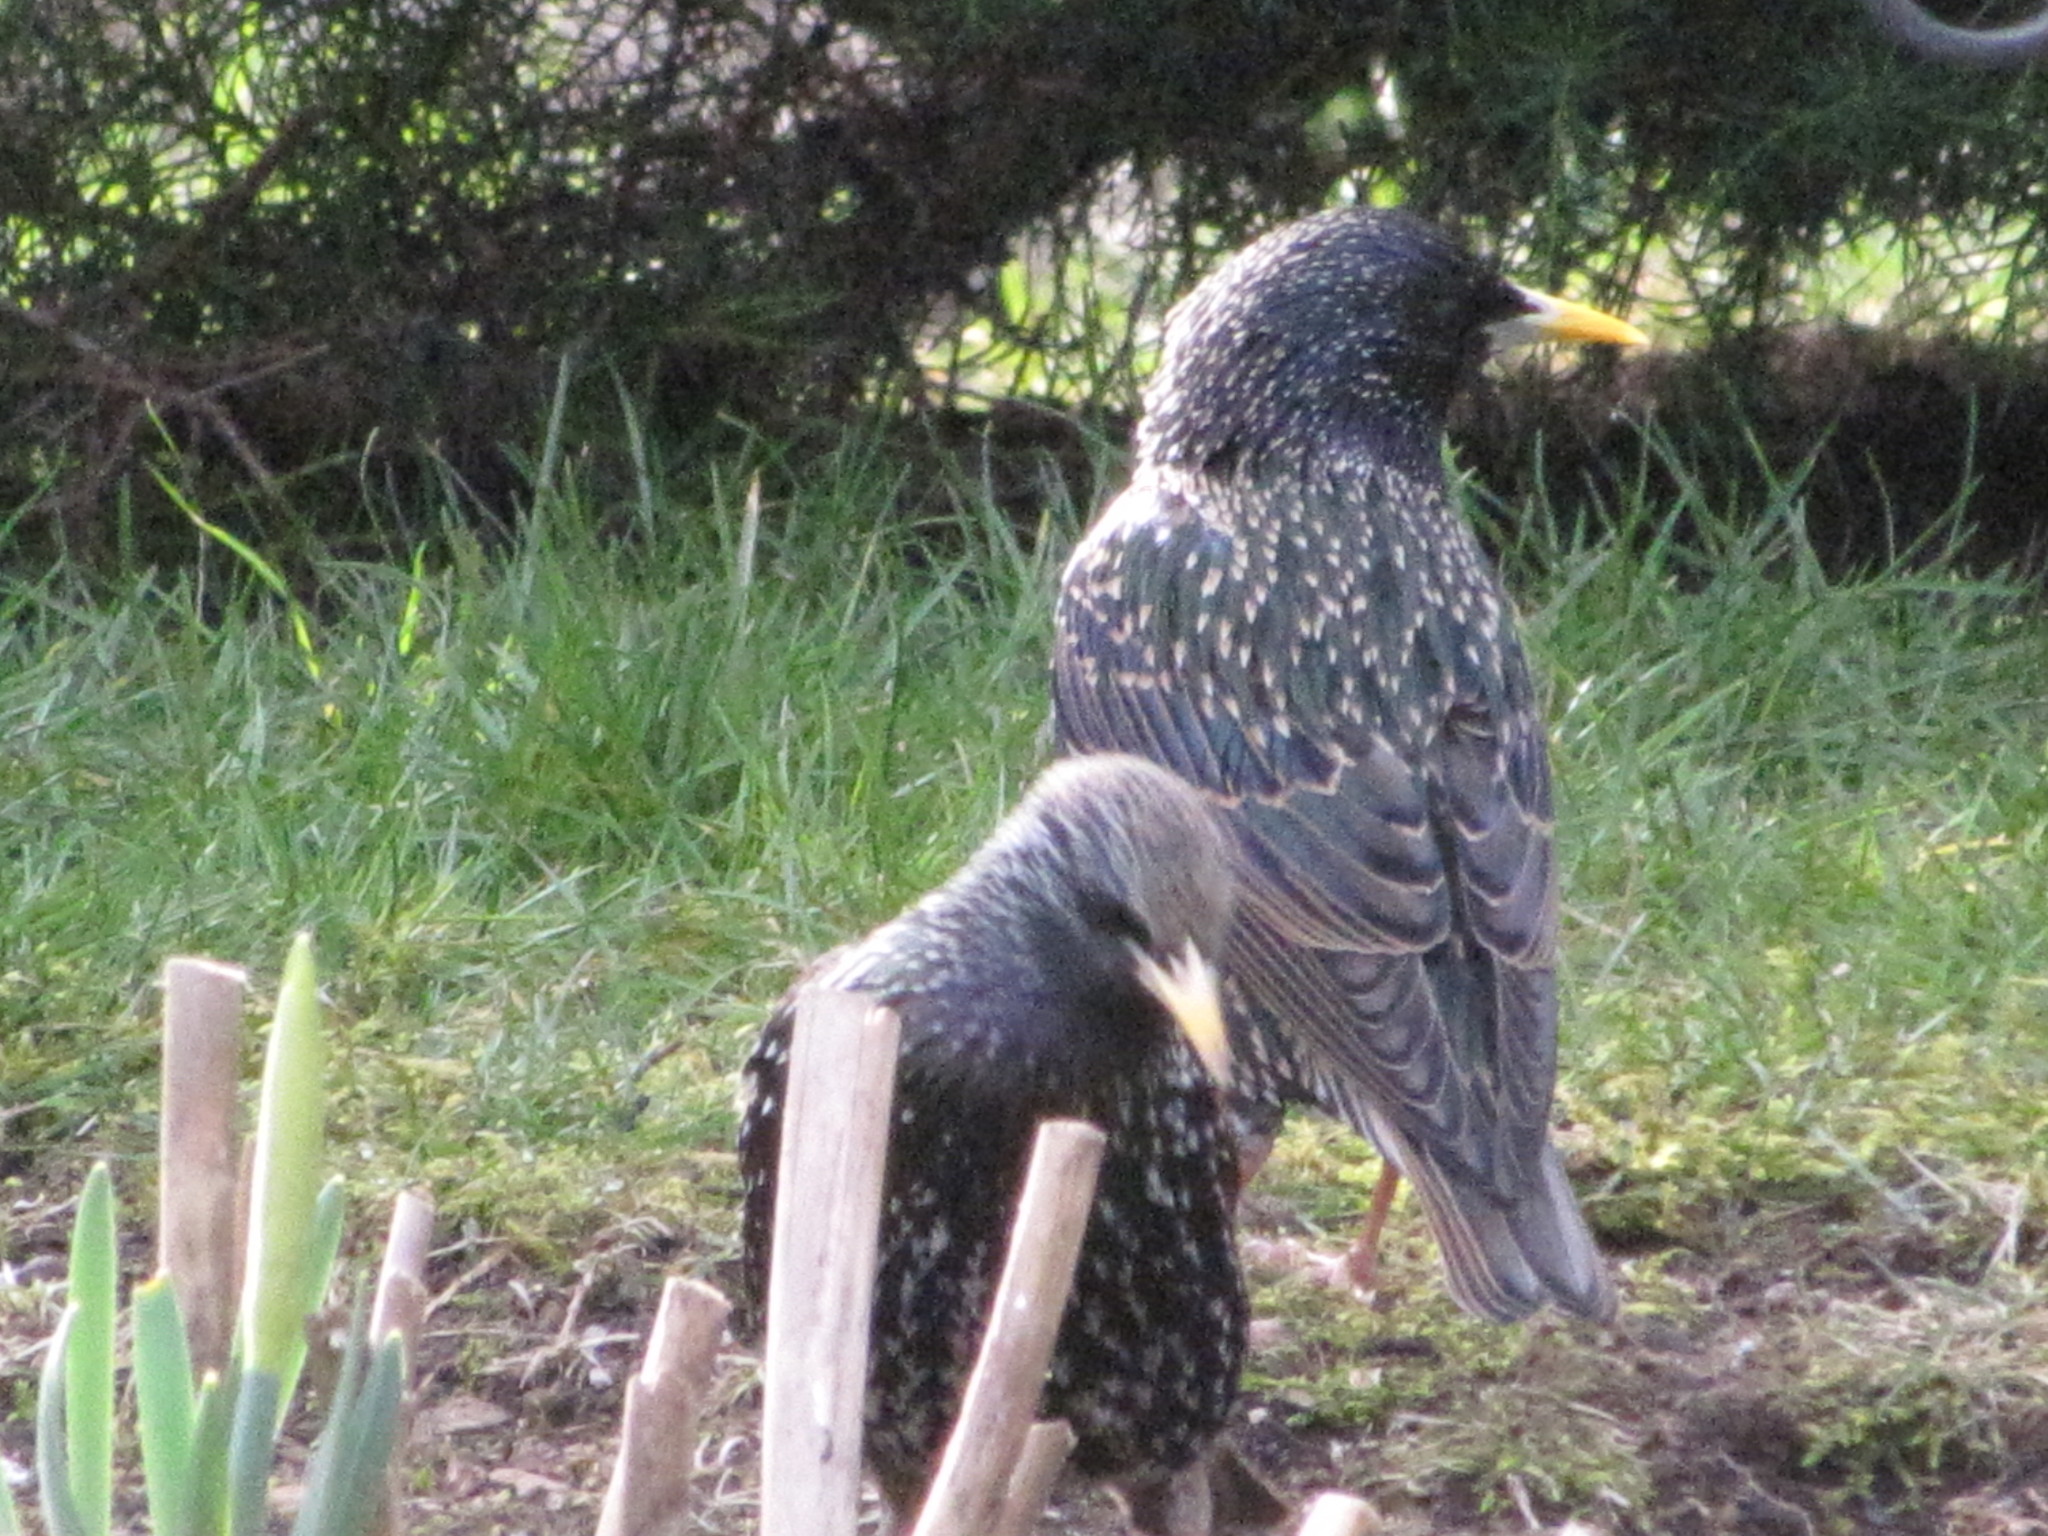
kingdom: Animalia
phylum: Chordata
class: Aves
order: Passeriformes
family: Sturnidae
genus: Sturnus
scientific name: Sturnus vulgaris
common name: Common starling
